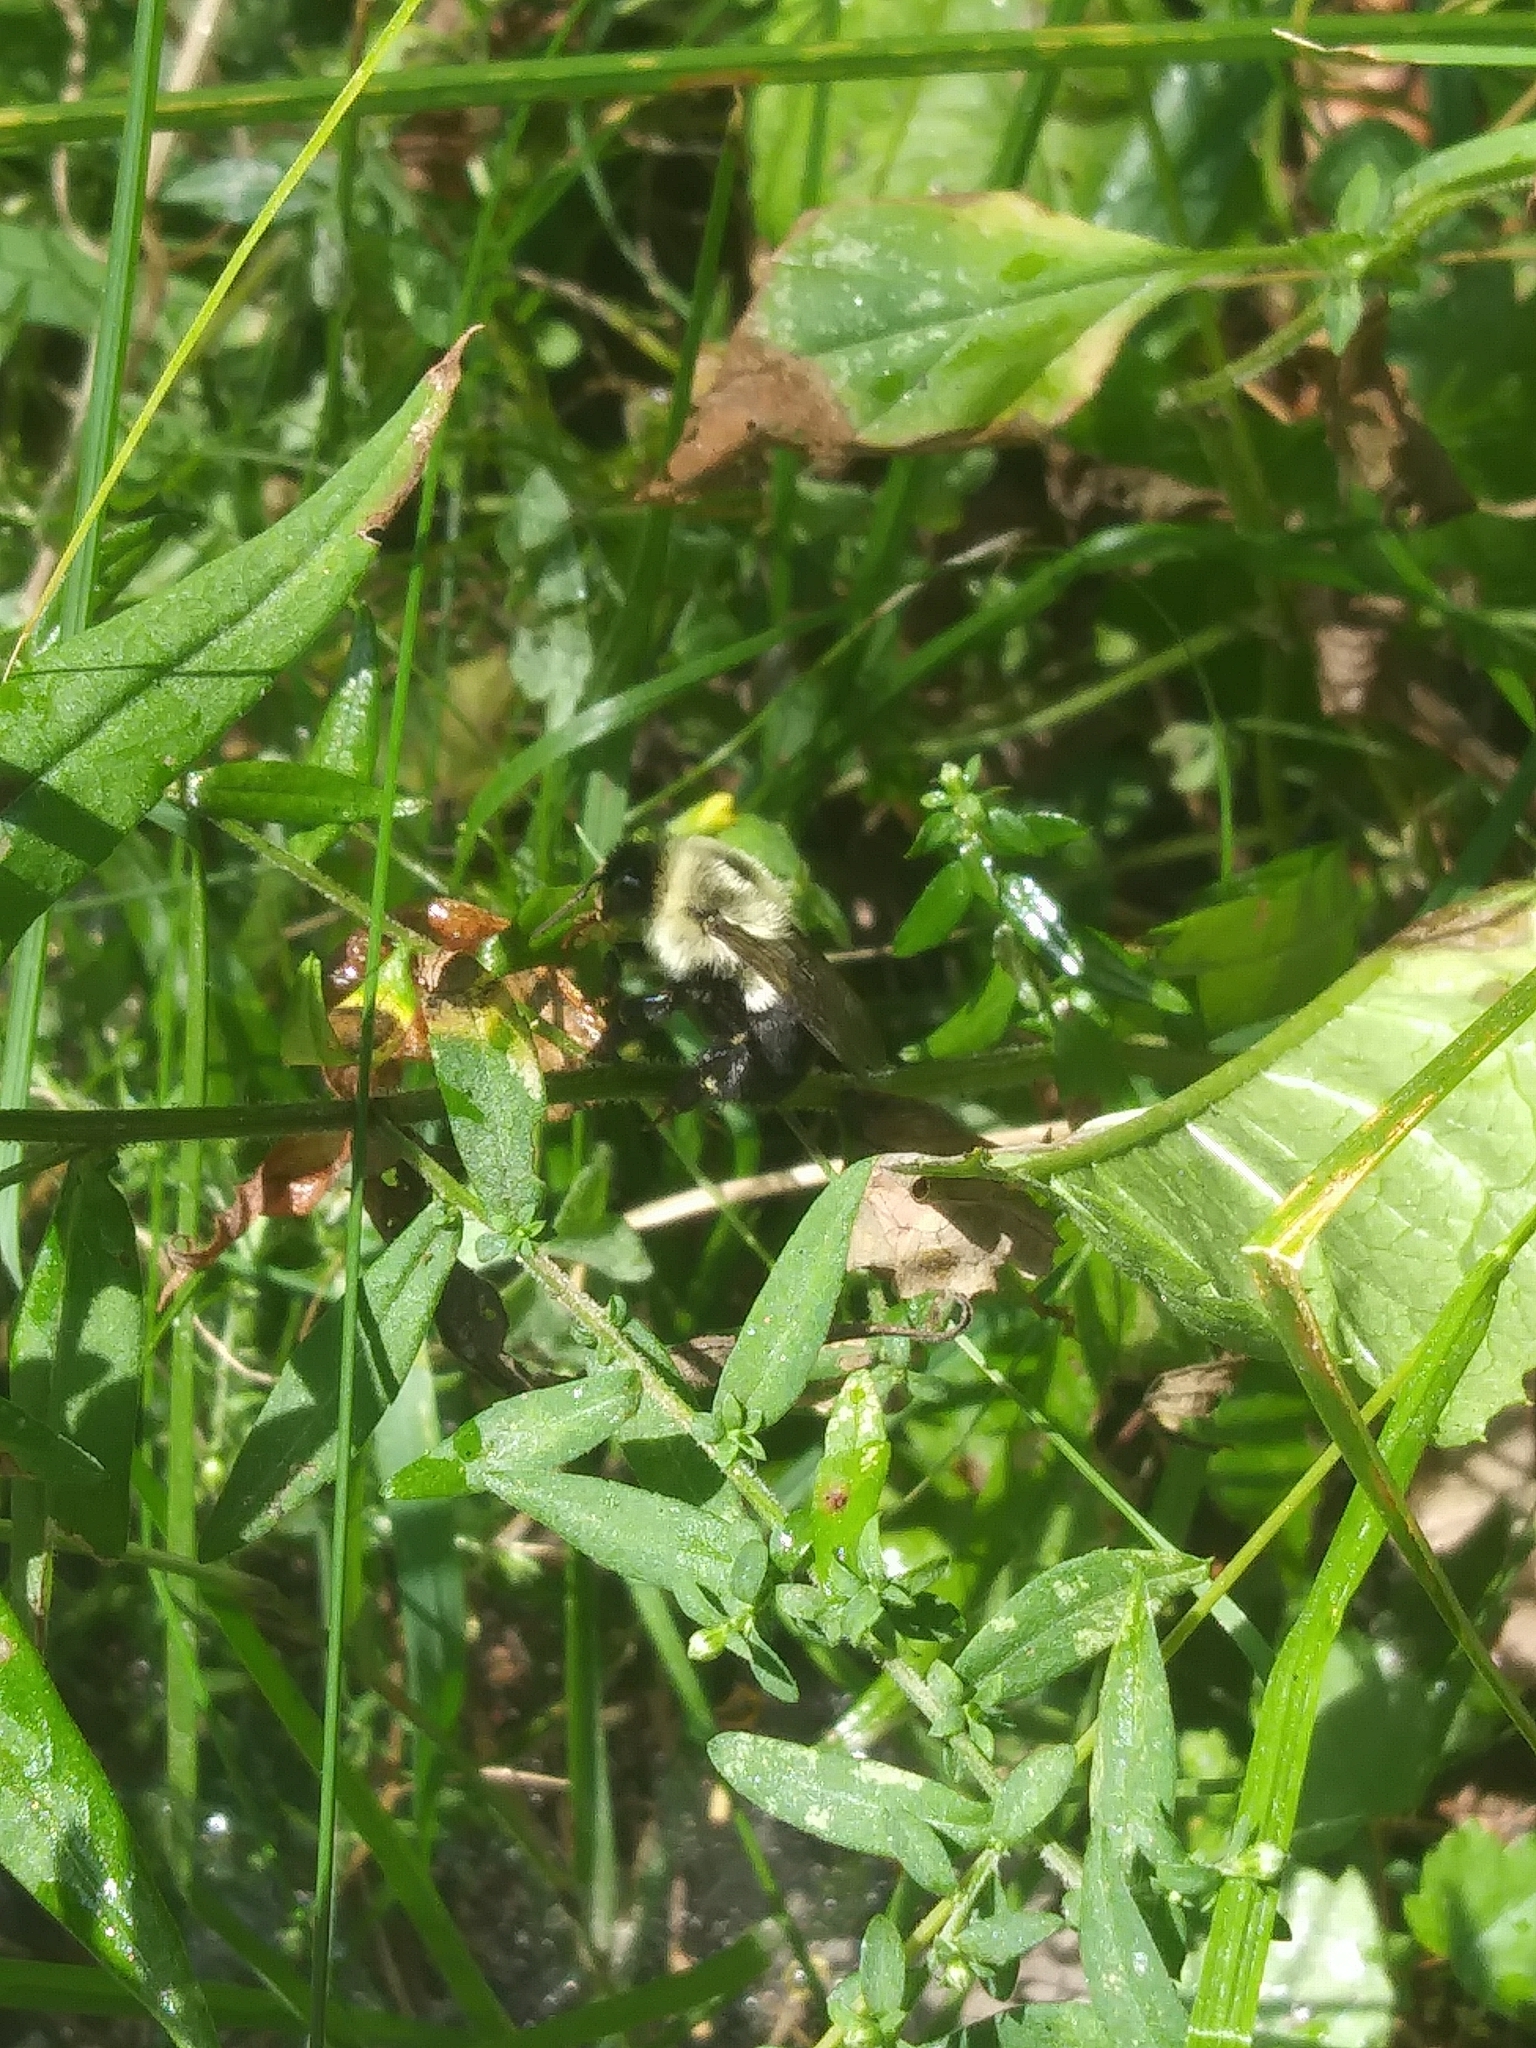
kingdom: Animalia
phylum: Arthropoda
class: Insecta
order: Hymenoptera
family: Apidae
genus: Bombus
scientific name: Bombus impatiens
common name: Common eastern bumble bee
